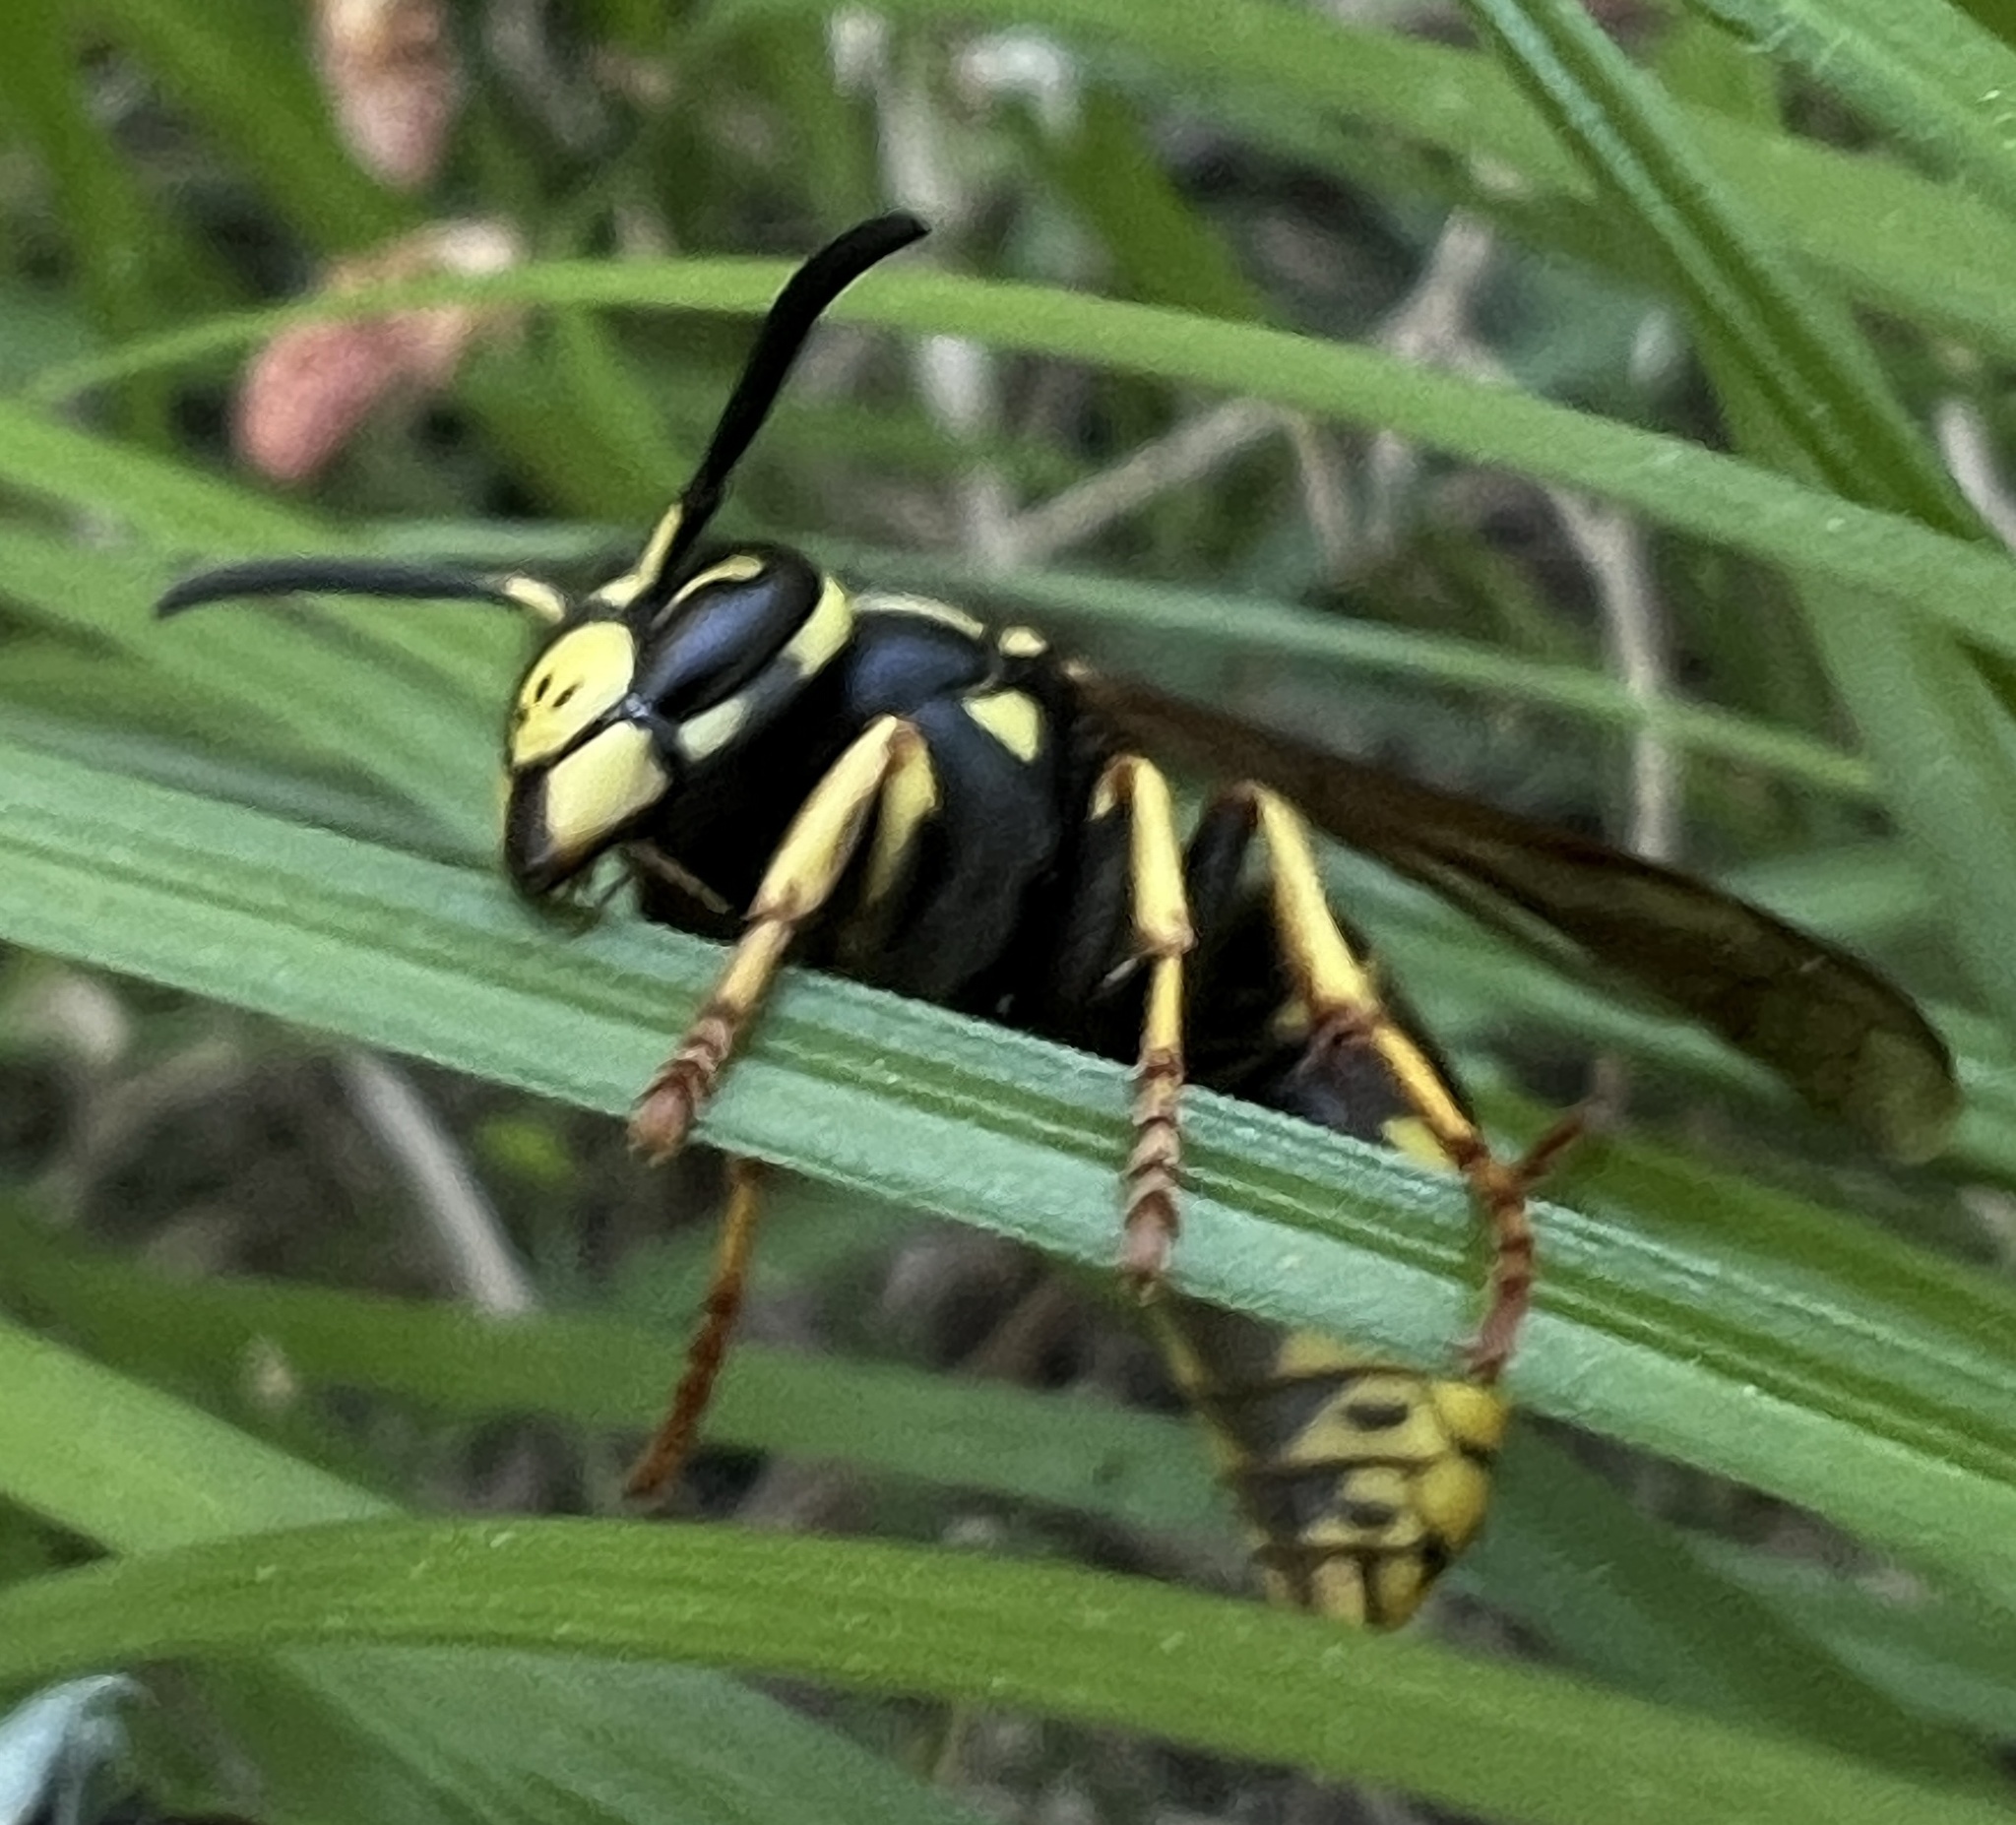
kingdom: Animalia
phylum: Arthropoda
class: Insecta
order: Hymenoptera
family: Vespidae
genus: Vespula
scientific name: Vespula vidua
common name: Widow yellowjacket
